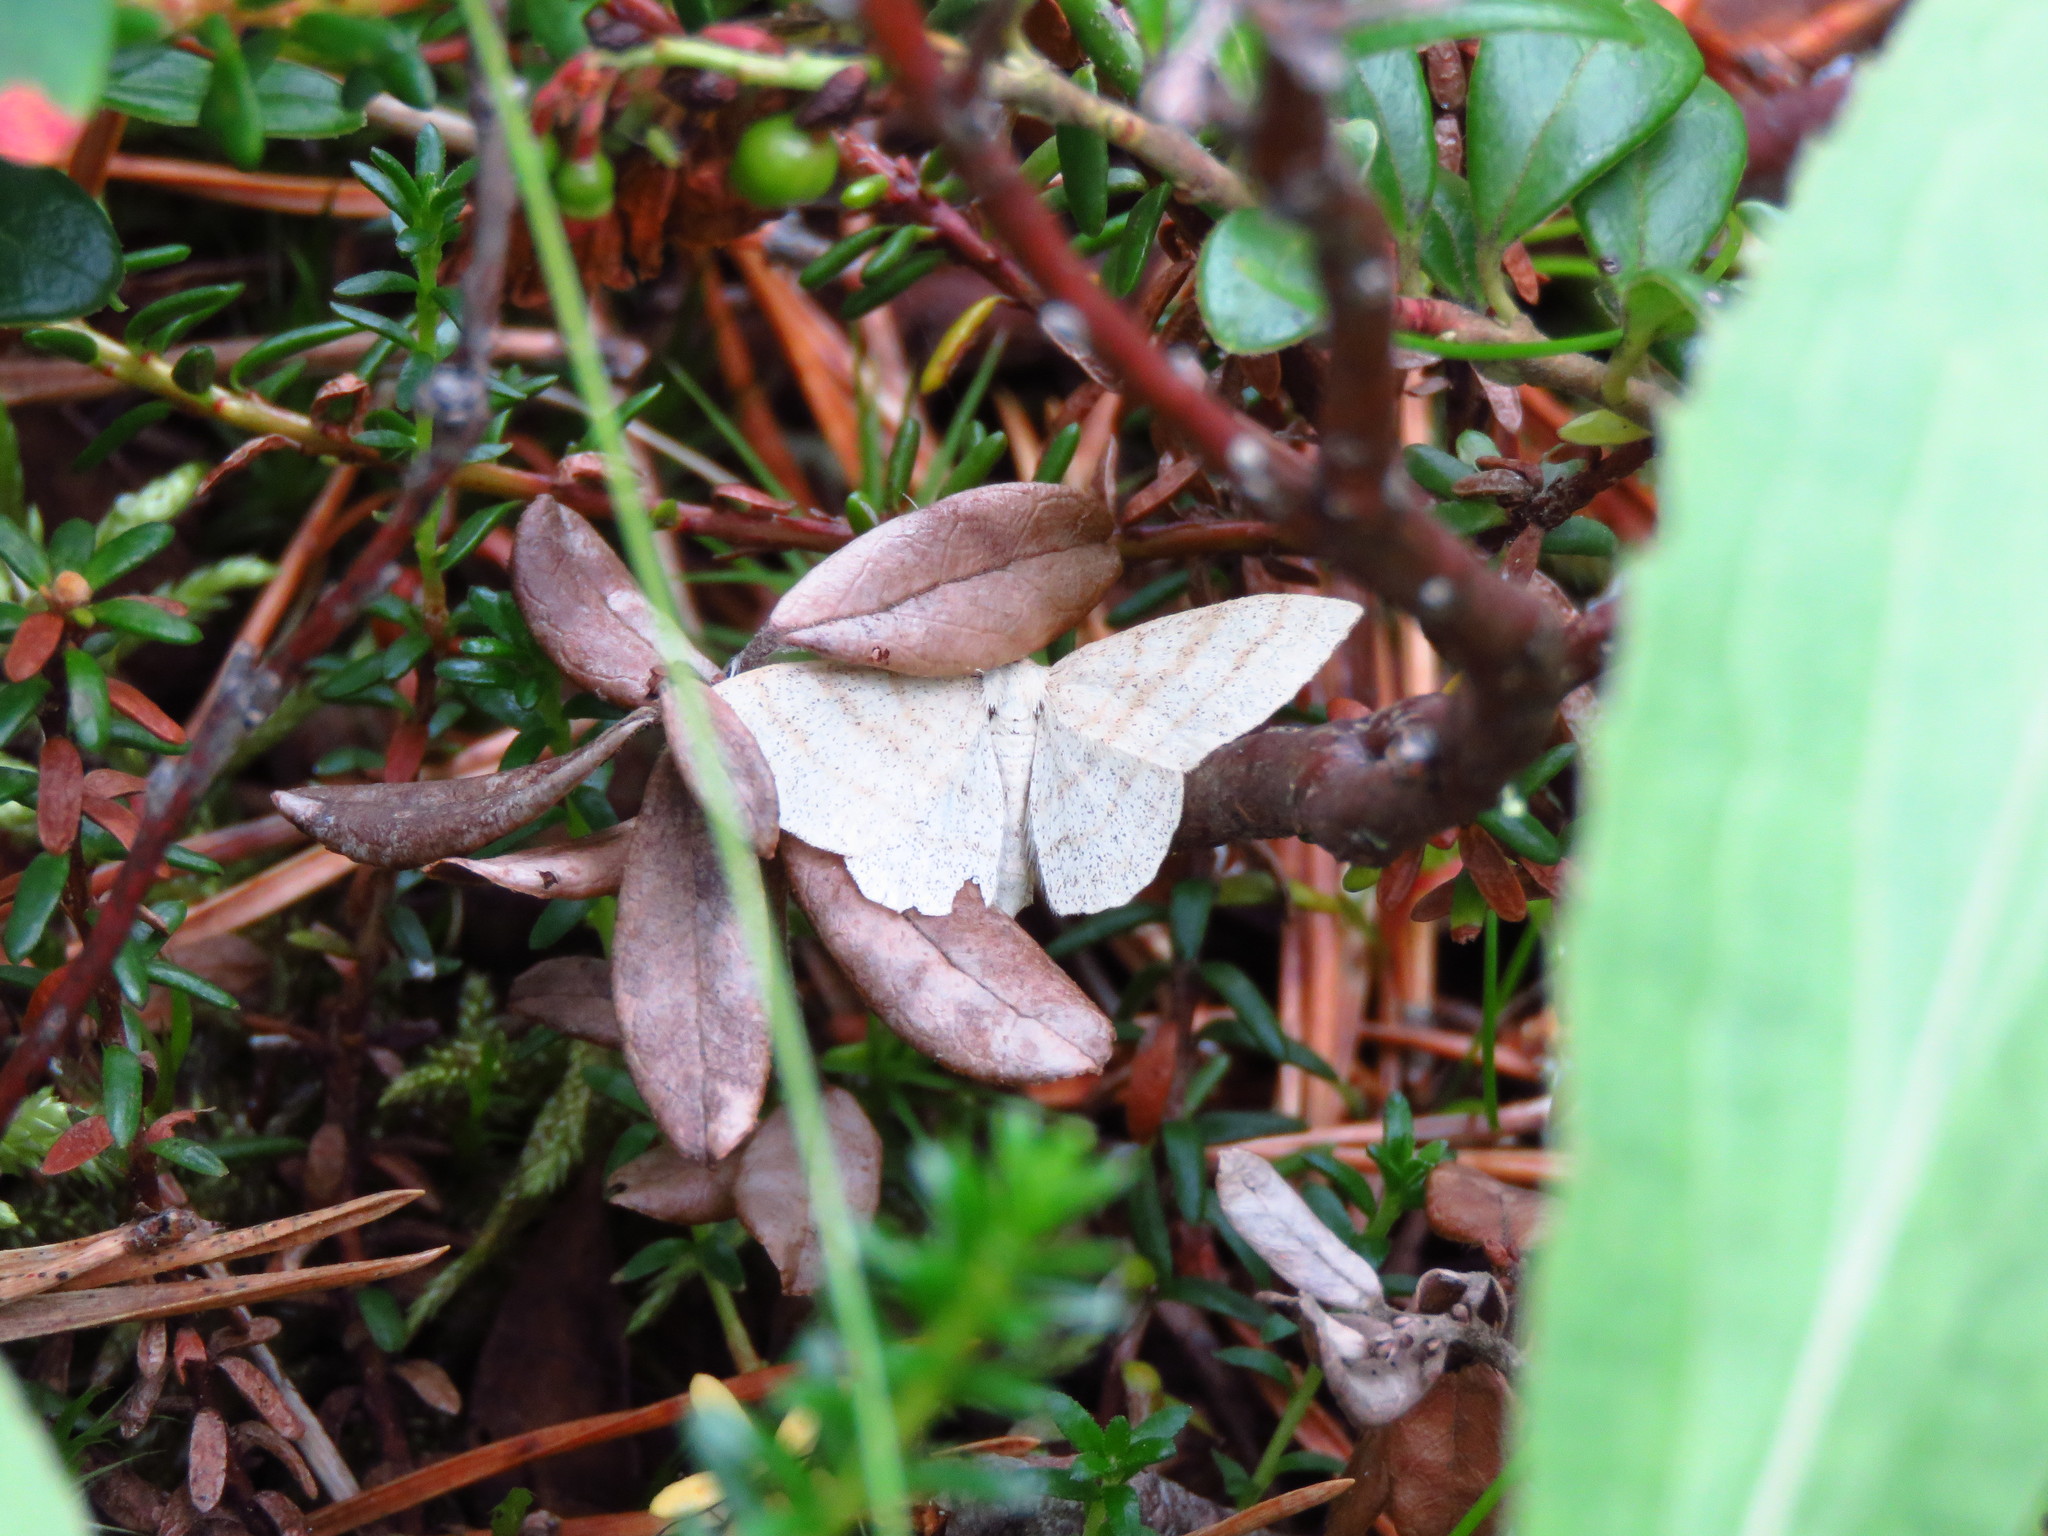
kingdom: Animalia
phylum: Arthropoda
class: Insecta
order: Lepidoptera
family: Geometridae
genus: Scopula
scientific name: Scopula ternata
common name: Smoky wave
